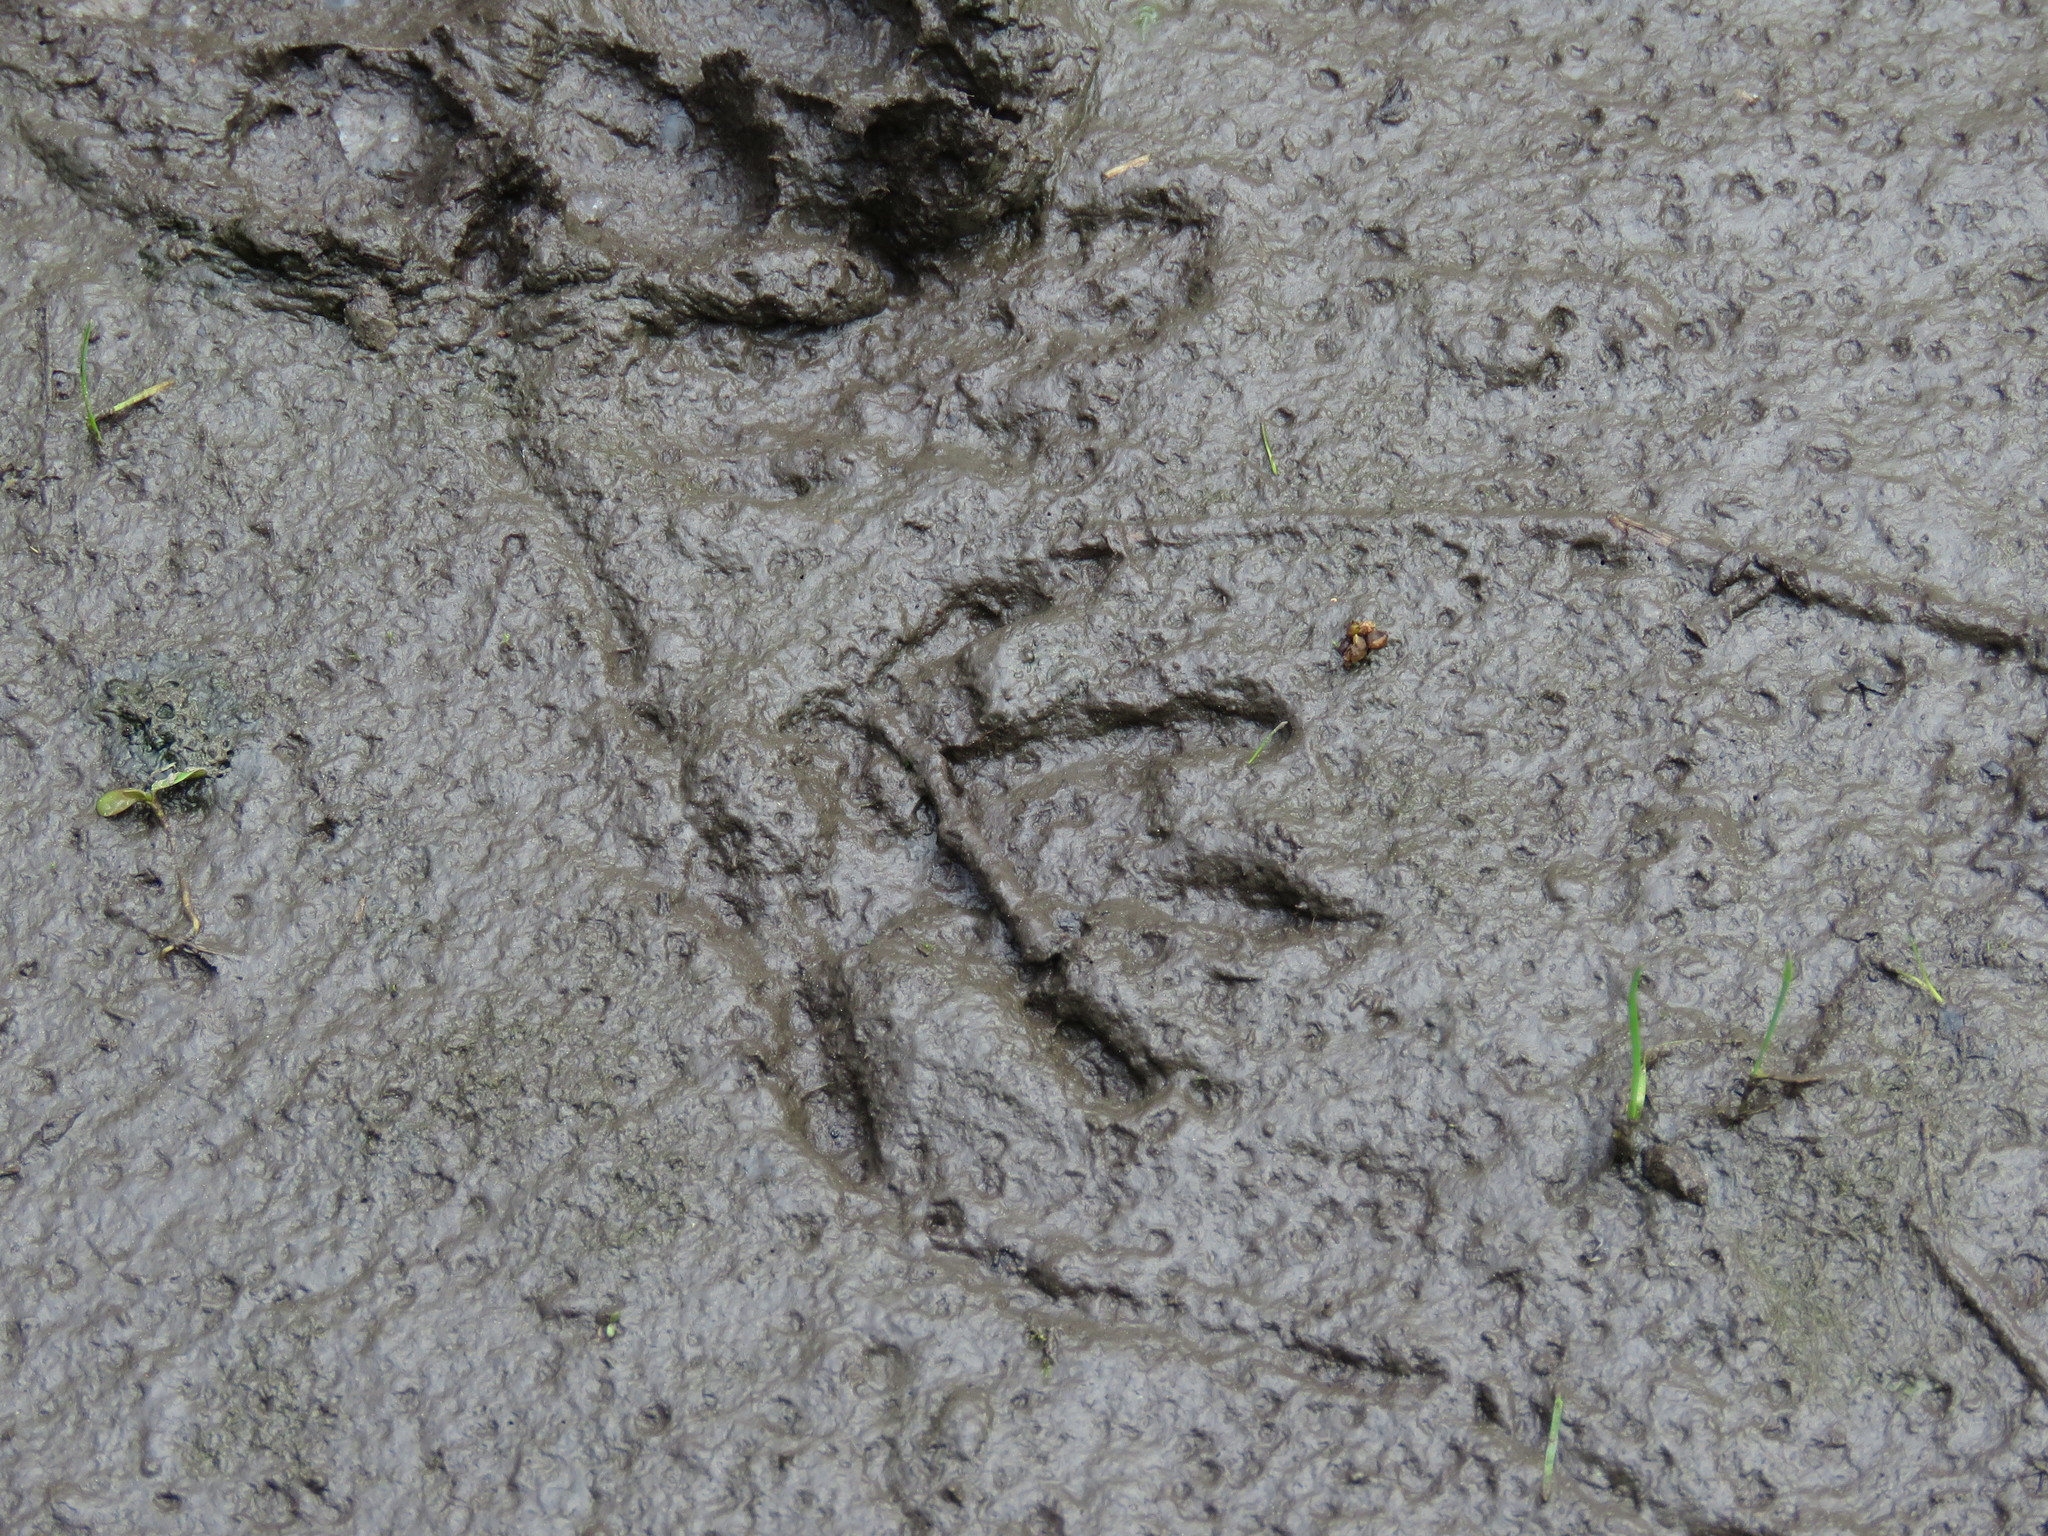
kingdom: Animalia
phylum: Chordata
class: Mammalia
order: Carnivora
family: Procyonidae
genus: Procyon
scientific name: Procyon lotor
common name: Raccoon
